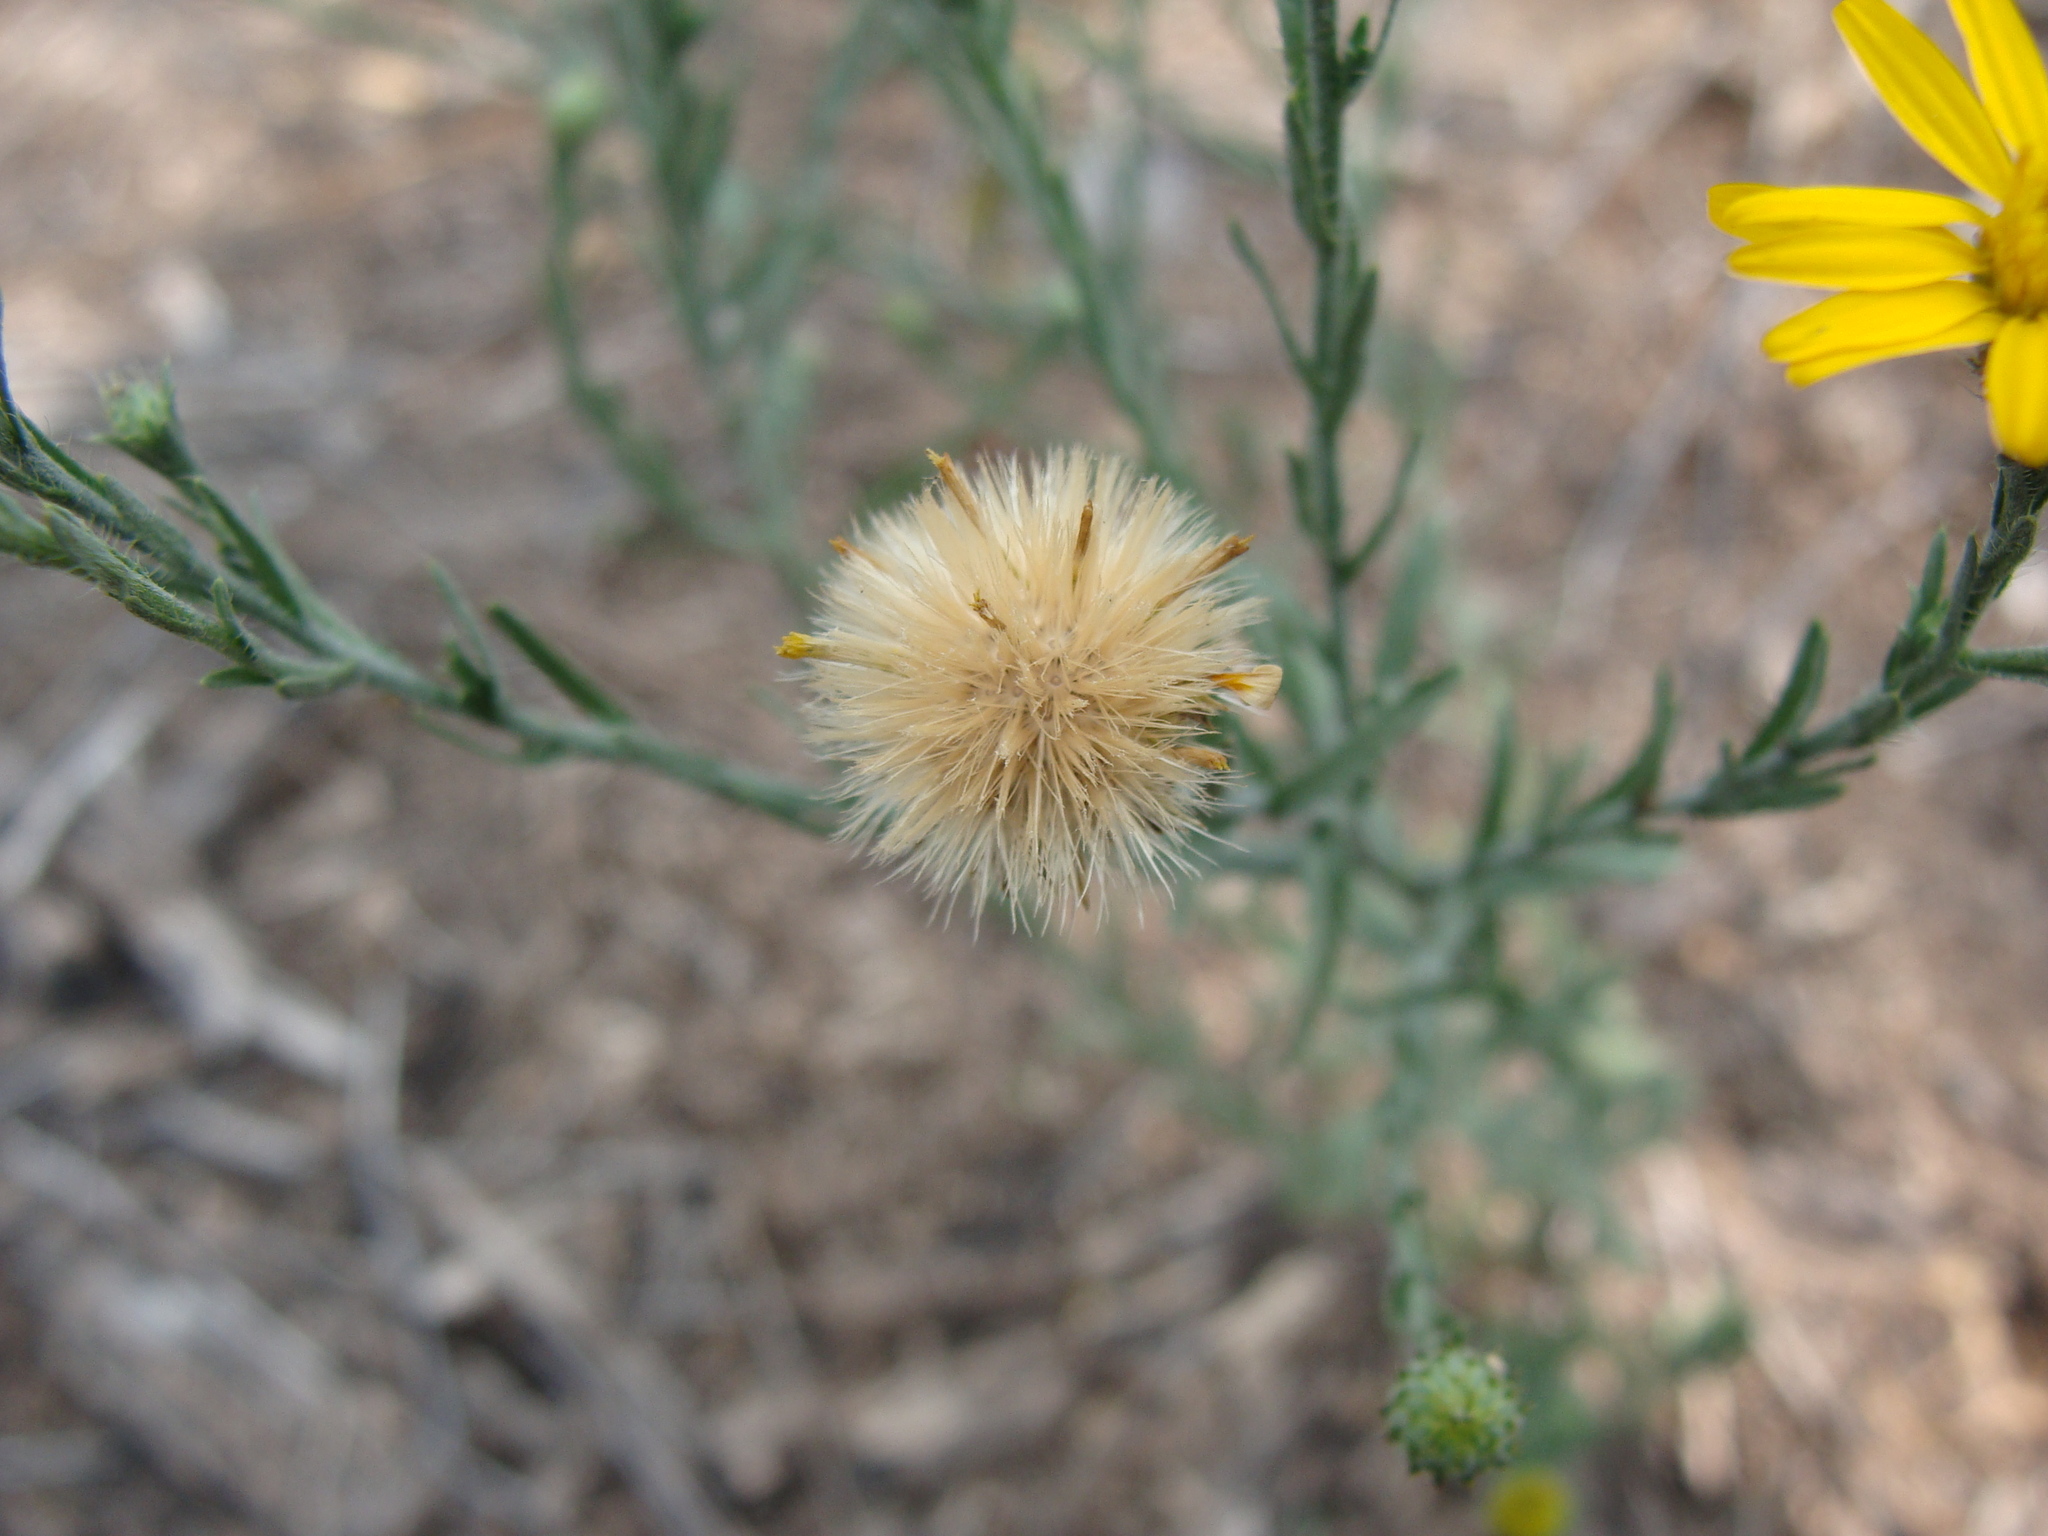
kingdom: Plantae
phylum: Tracheophyta
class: Magnoliopsida
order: Asterales
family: Asteraceae
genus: Xanthisma
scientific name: Xanthisma gracile
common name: Slender goldenweed
